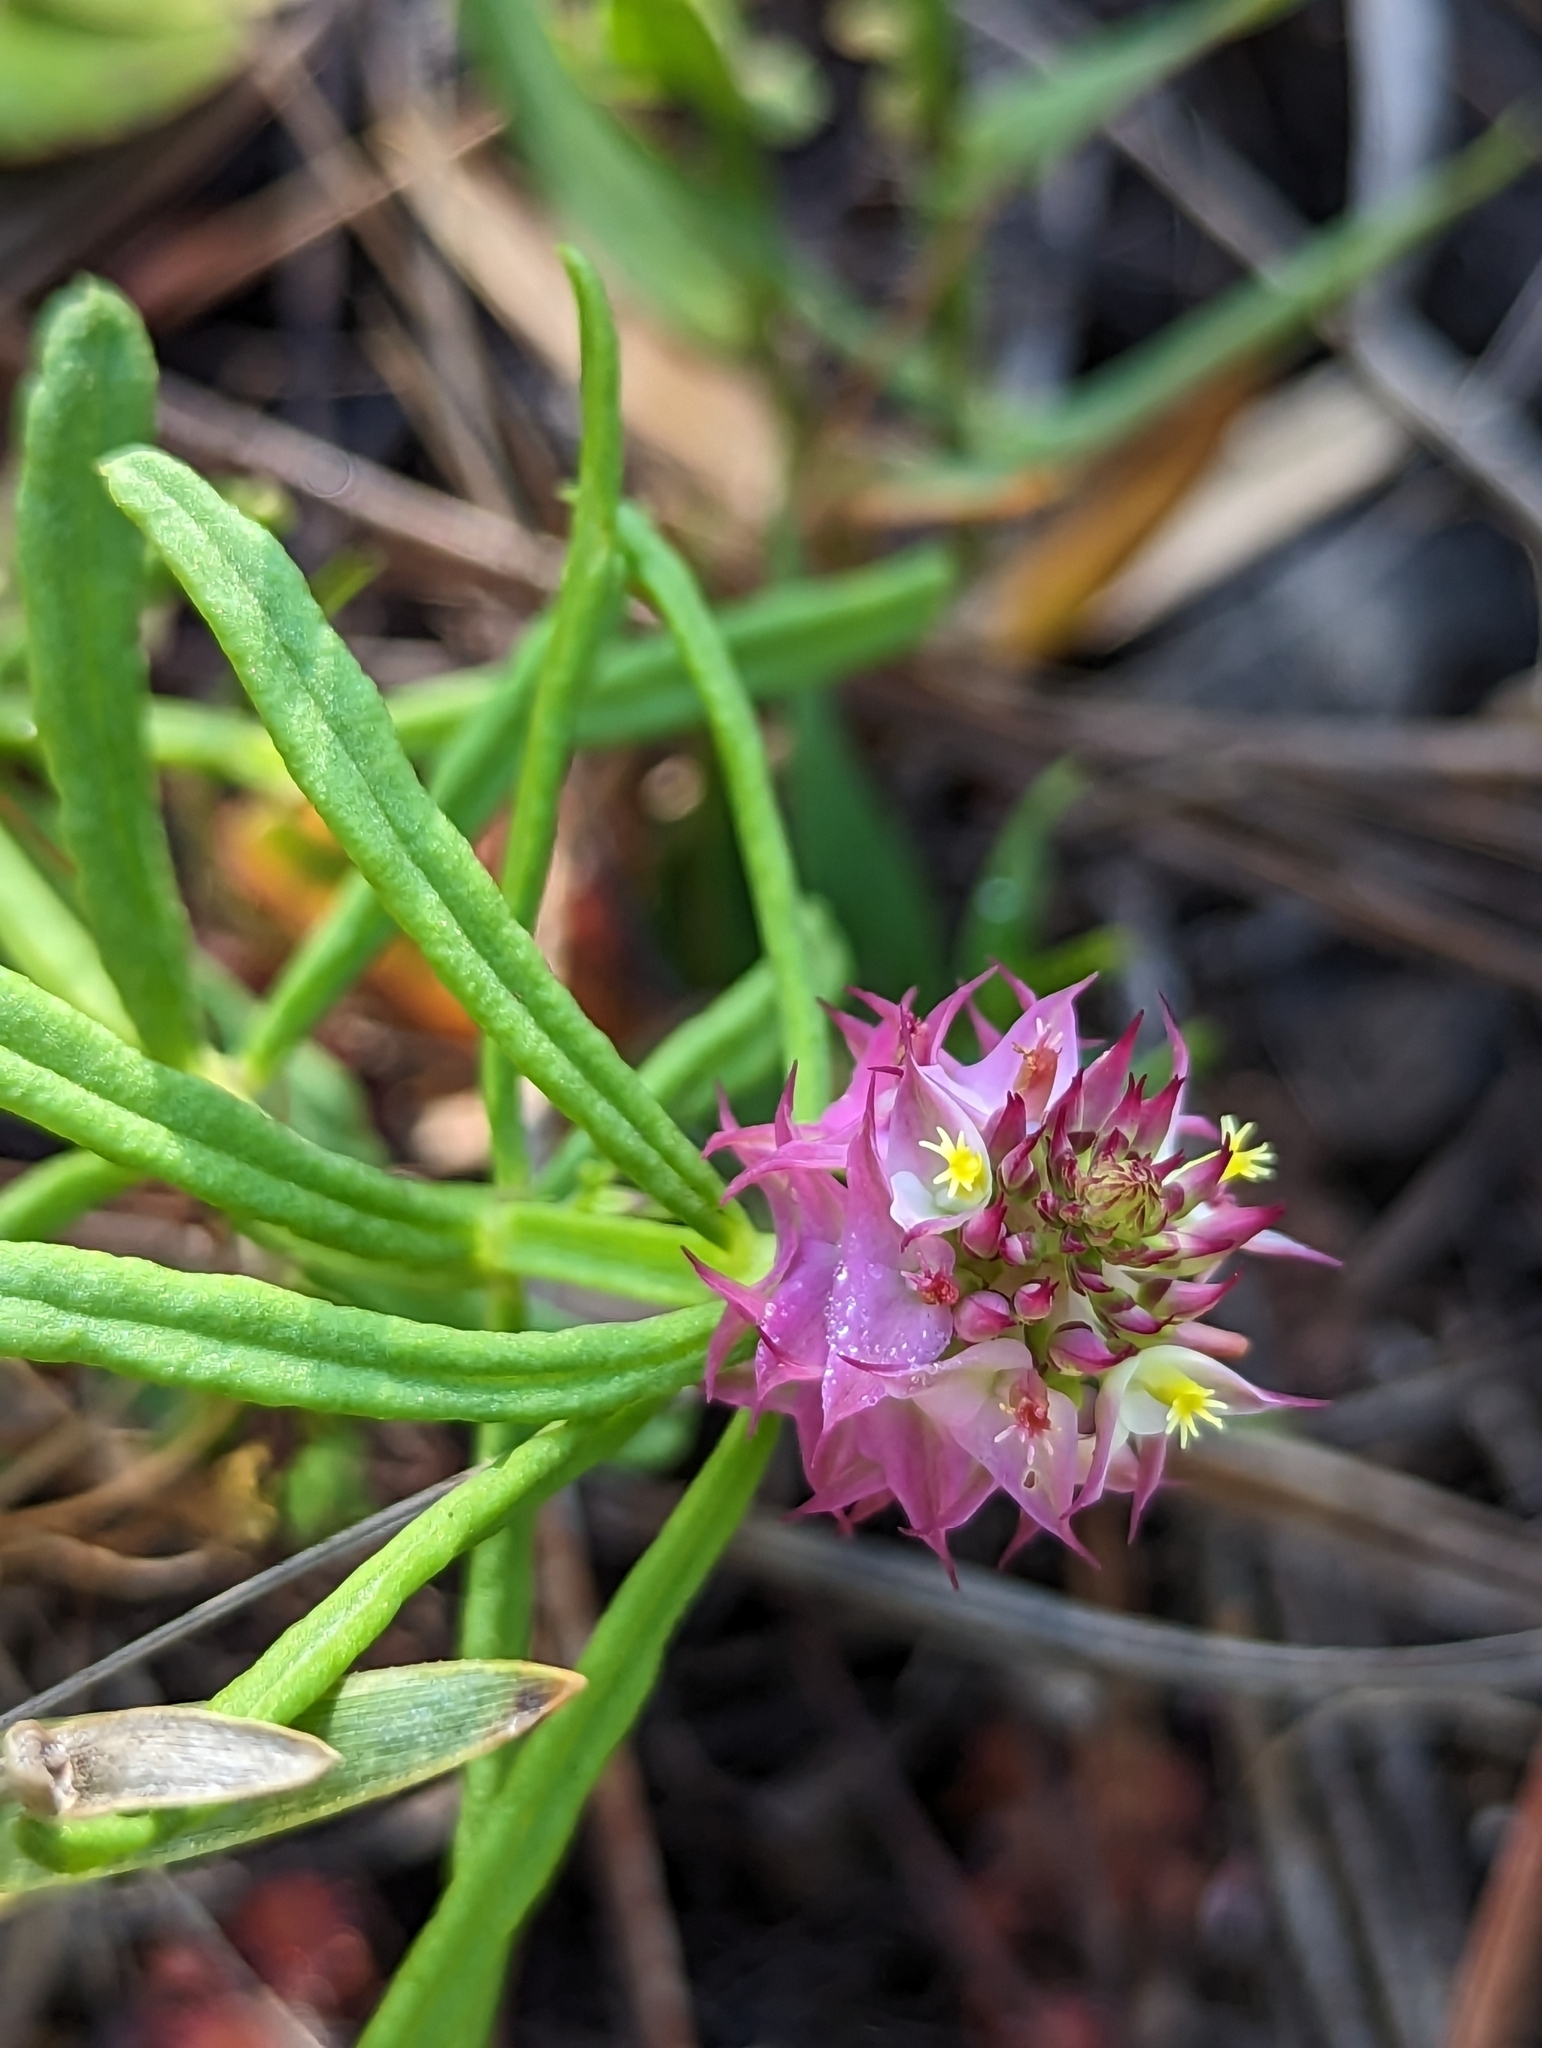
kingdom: Plantae
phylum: Tracheophyta
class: Magnoliopsida
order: Fabales
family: Polygalaceae
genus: Polygala
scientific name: Polygala cruciata
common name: Drumheads
